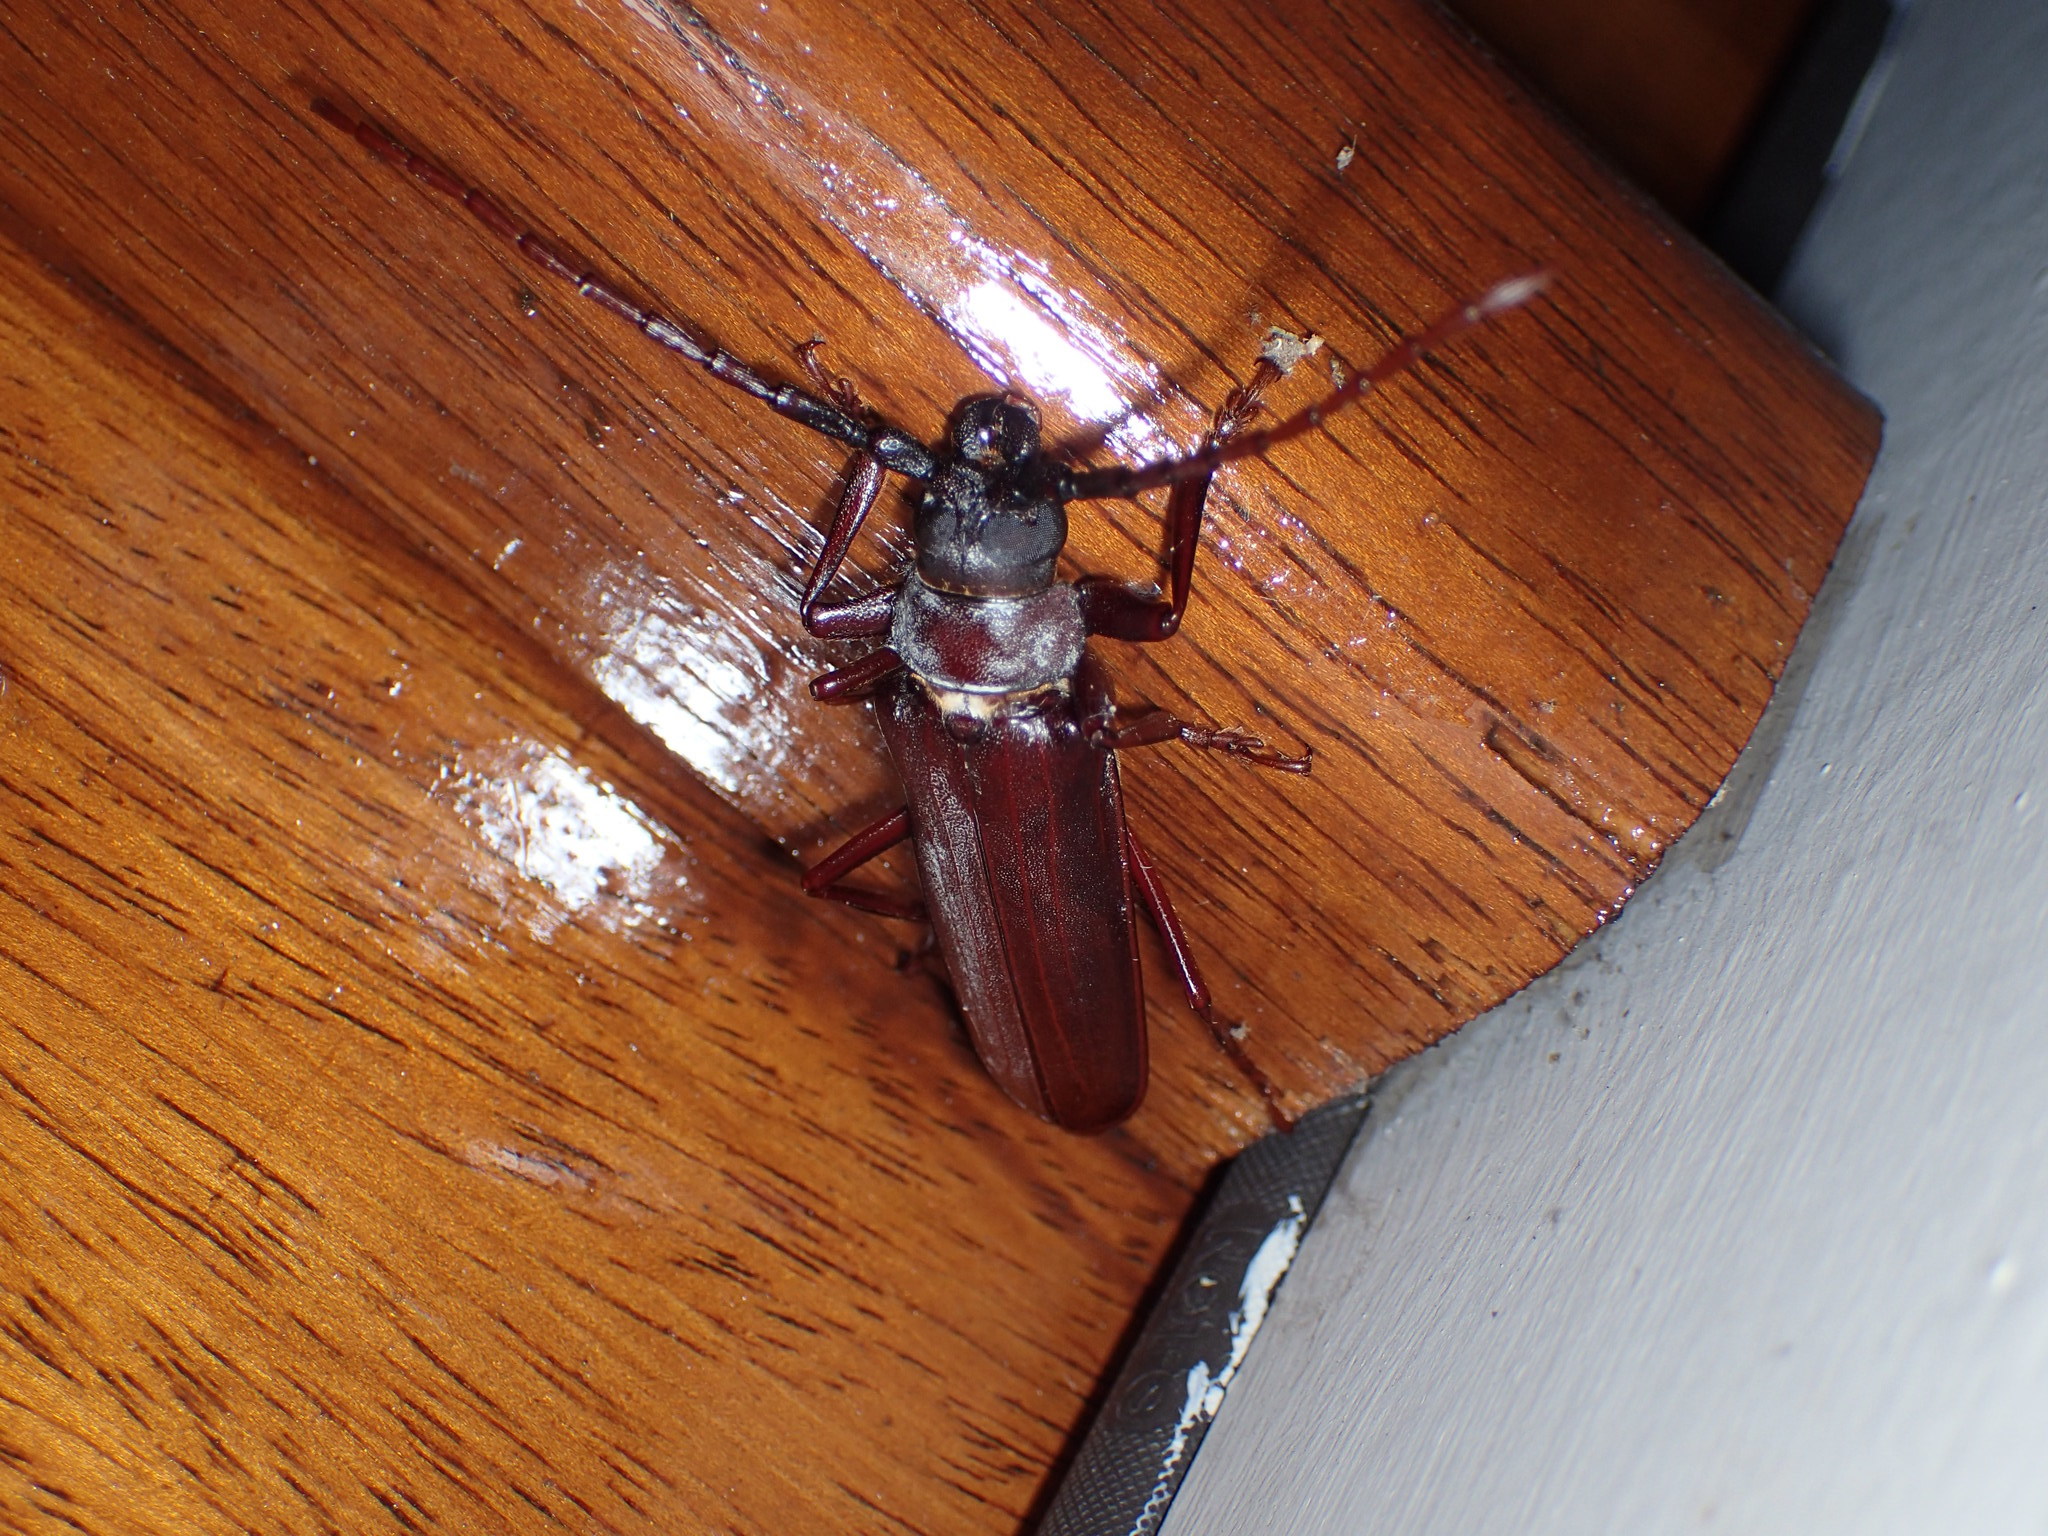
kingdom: Animalia
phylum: Arthropoda
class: Insecta
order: Coleoptera
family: Cerambycidae
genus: Orthosoma
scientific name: Orthosoma brunneum
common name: Brown prionid beetle
